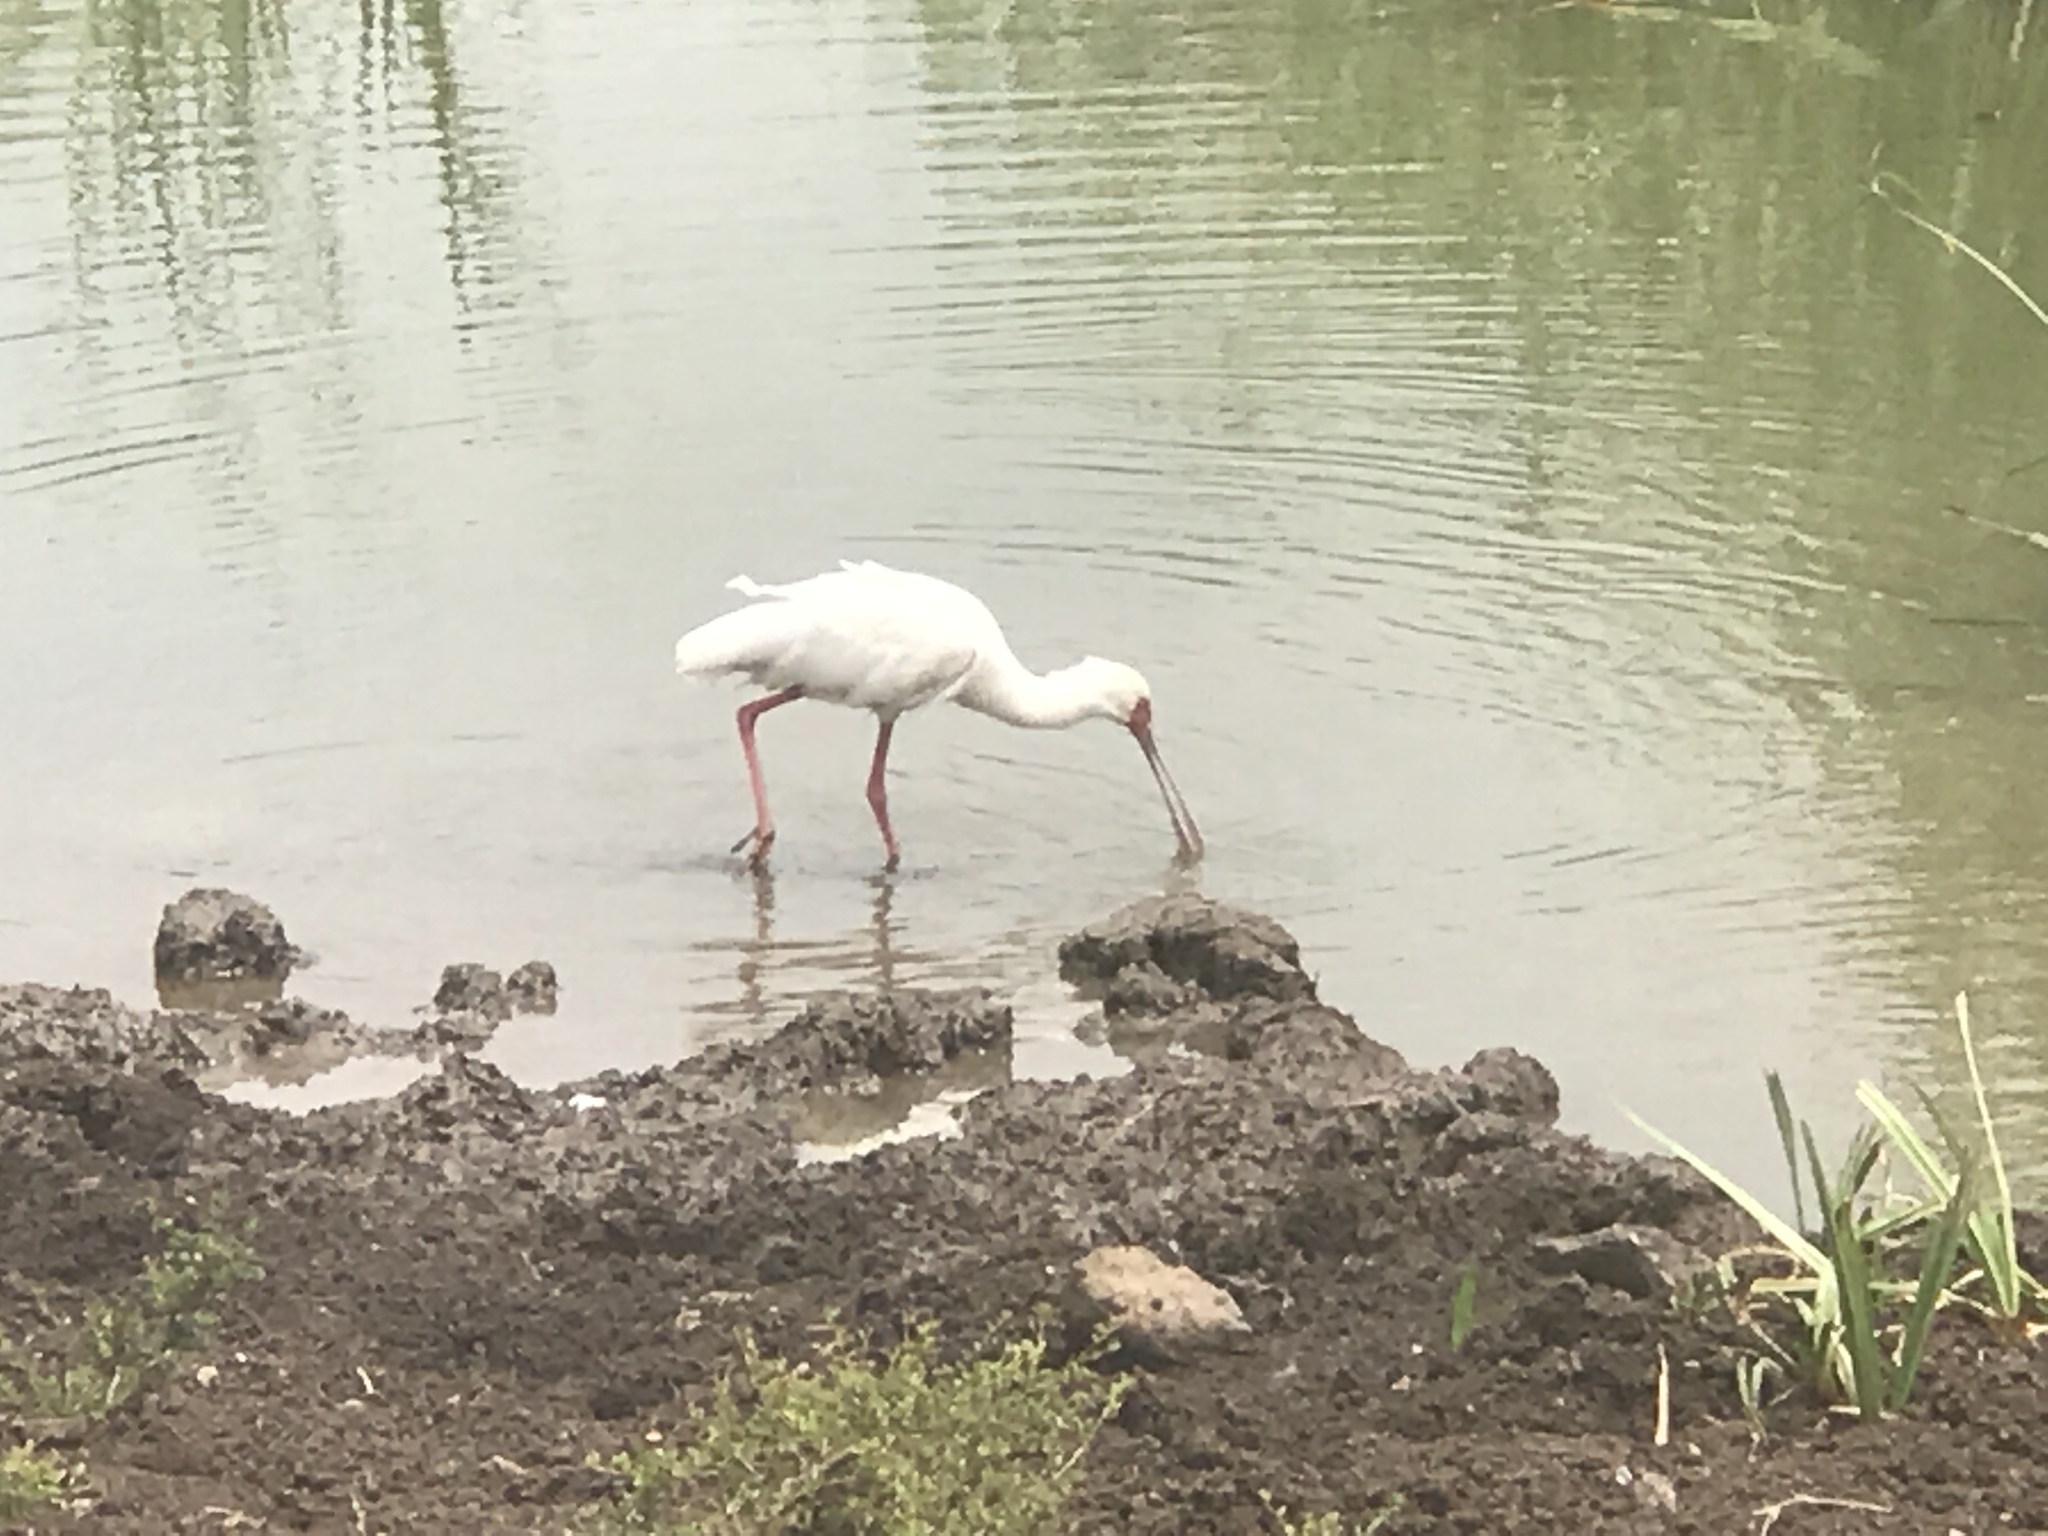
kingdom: Animalia
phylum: Chordata
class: Aves
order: Pelecaniformes
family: Threskiornithidae
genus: Platalea
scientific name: Platalea alba
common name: African spoonbill
